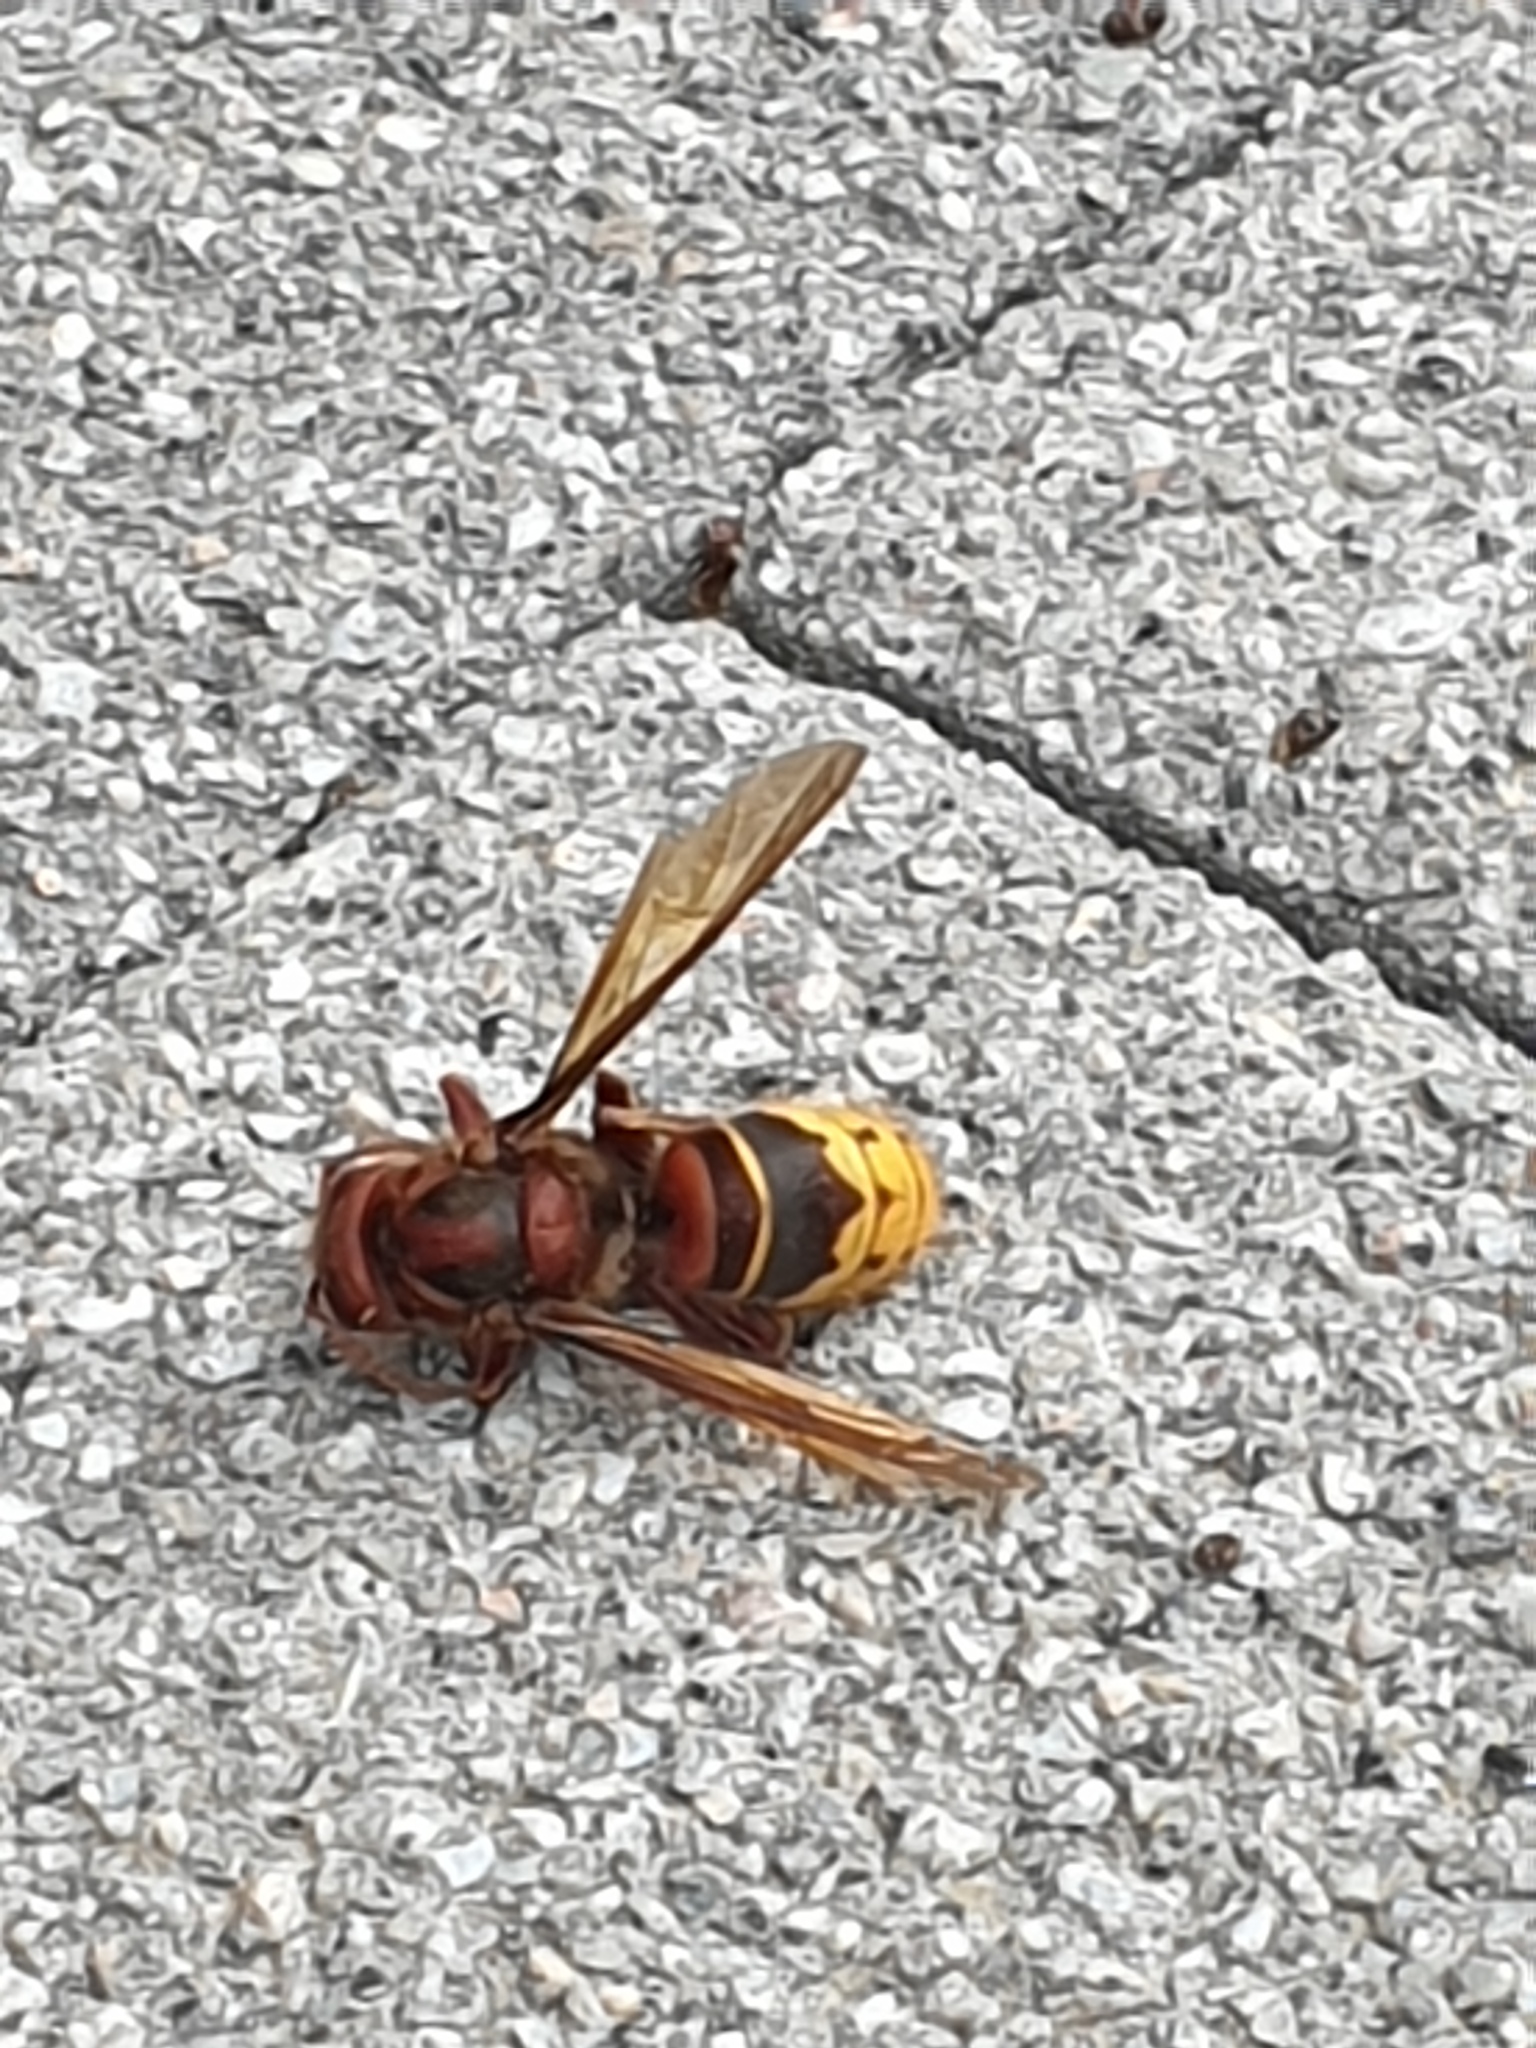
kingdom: Animalia
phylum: Arthropoda
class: Insecta
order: Hymenoptera
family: Vespidae
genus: Vespa
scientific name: Vespa crabro
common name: Hornet
